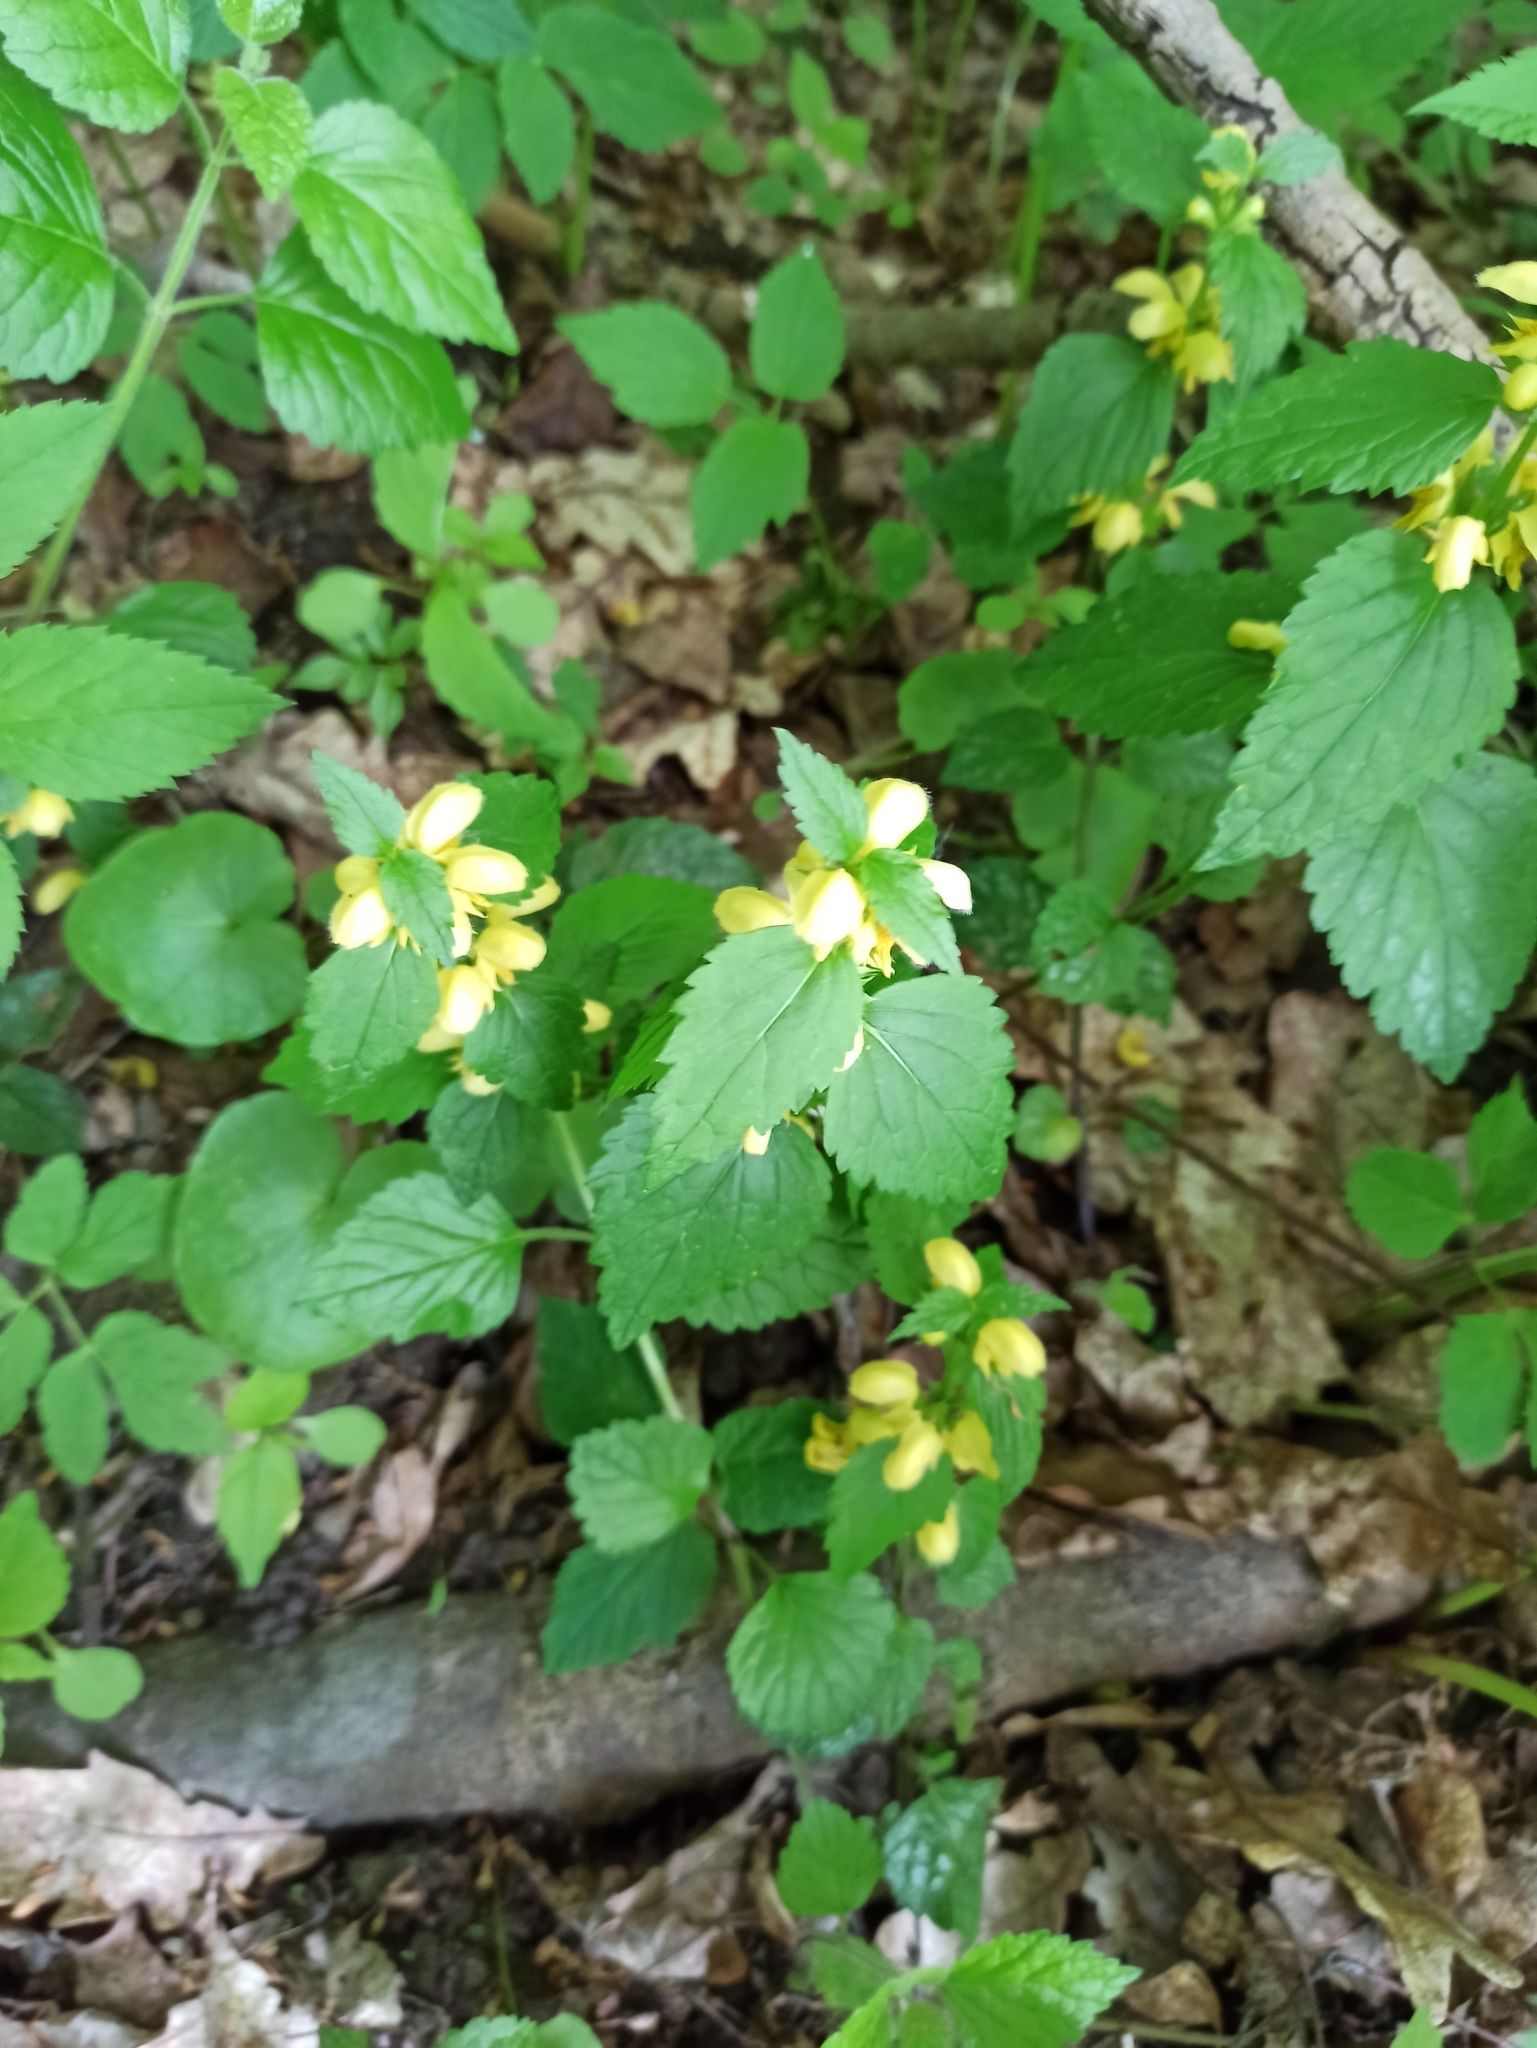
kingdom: Plantae
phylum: Tracheophyta
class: Magnoliopsida
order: Lamiales
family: Lamiaceae
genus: Lamium
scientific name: Lamium galeobdolon
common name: Yellow archangel
